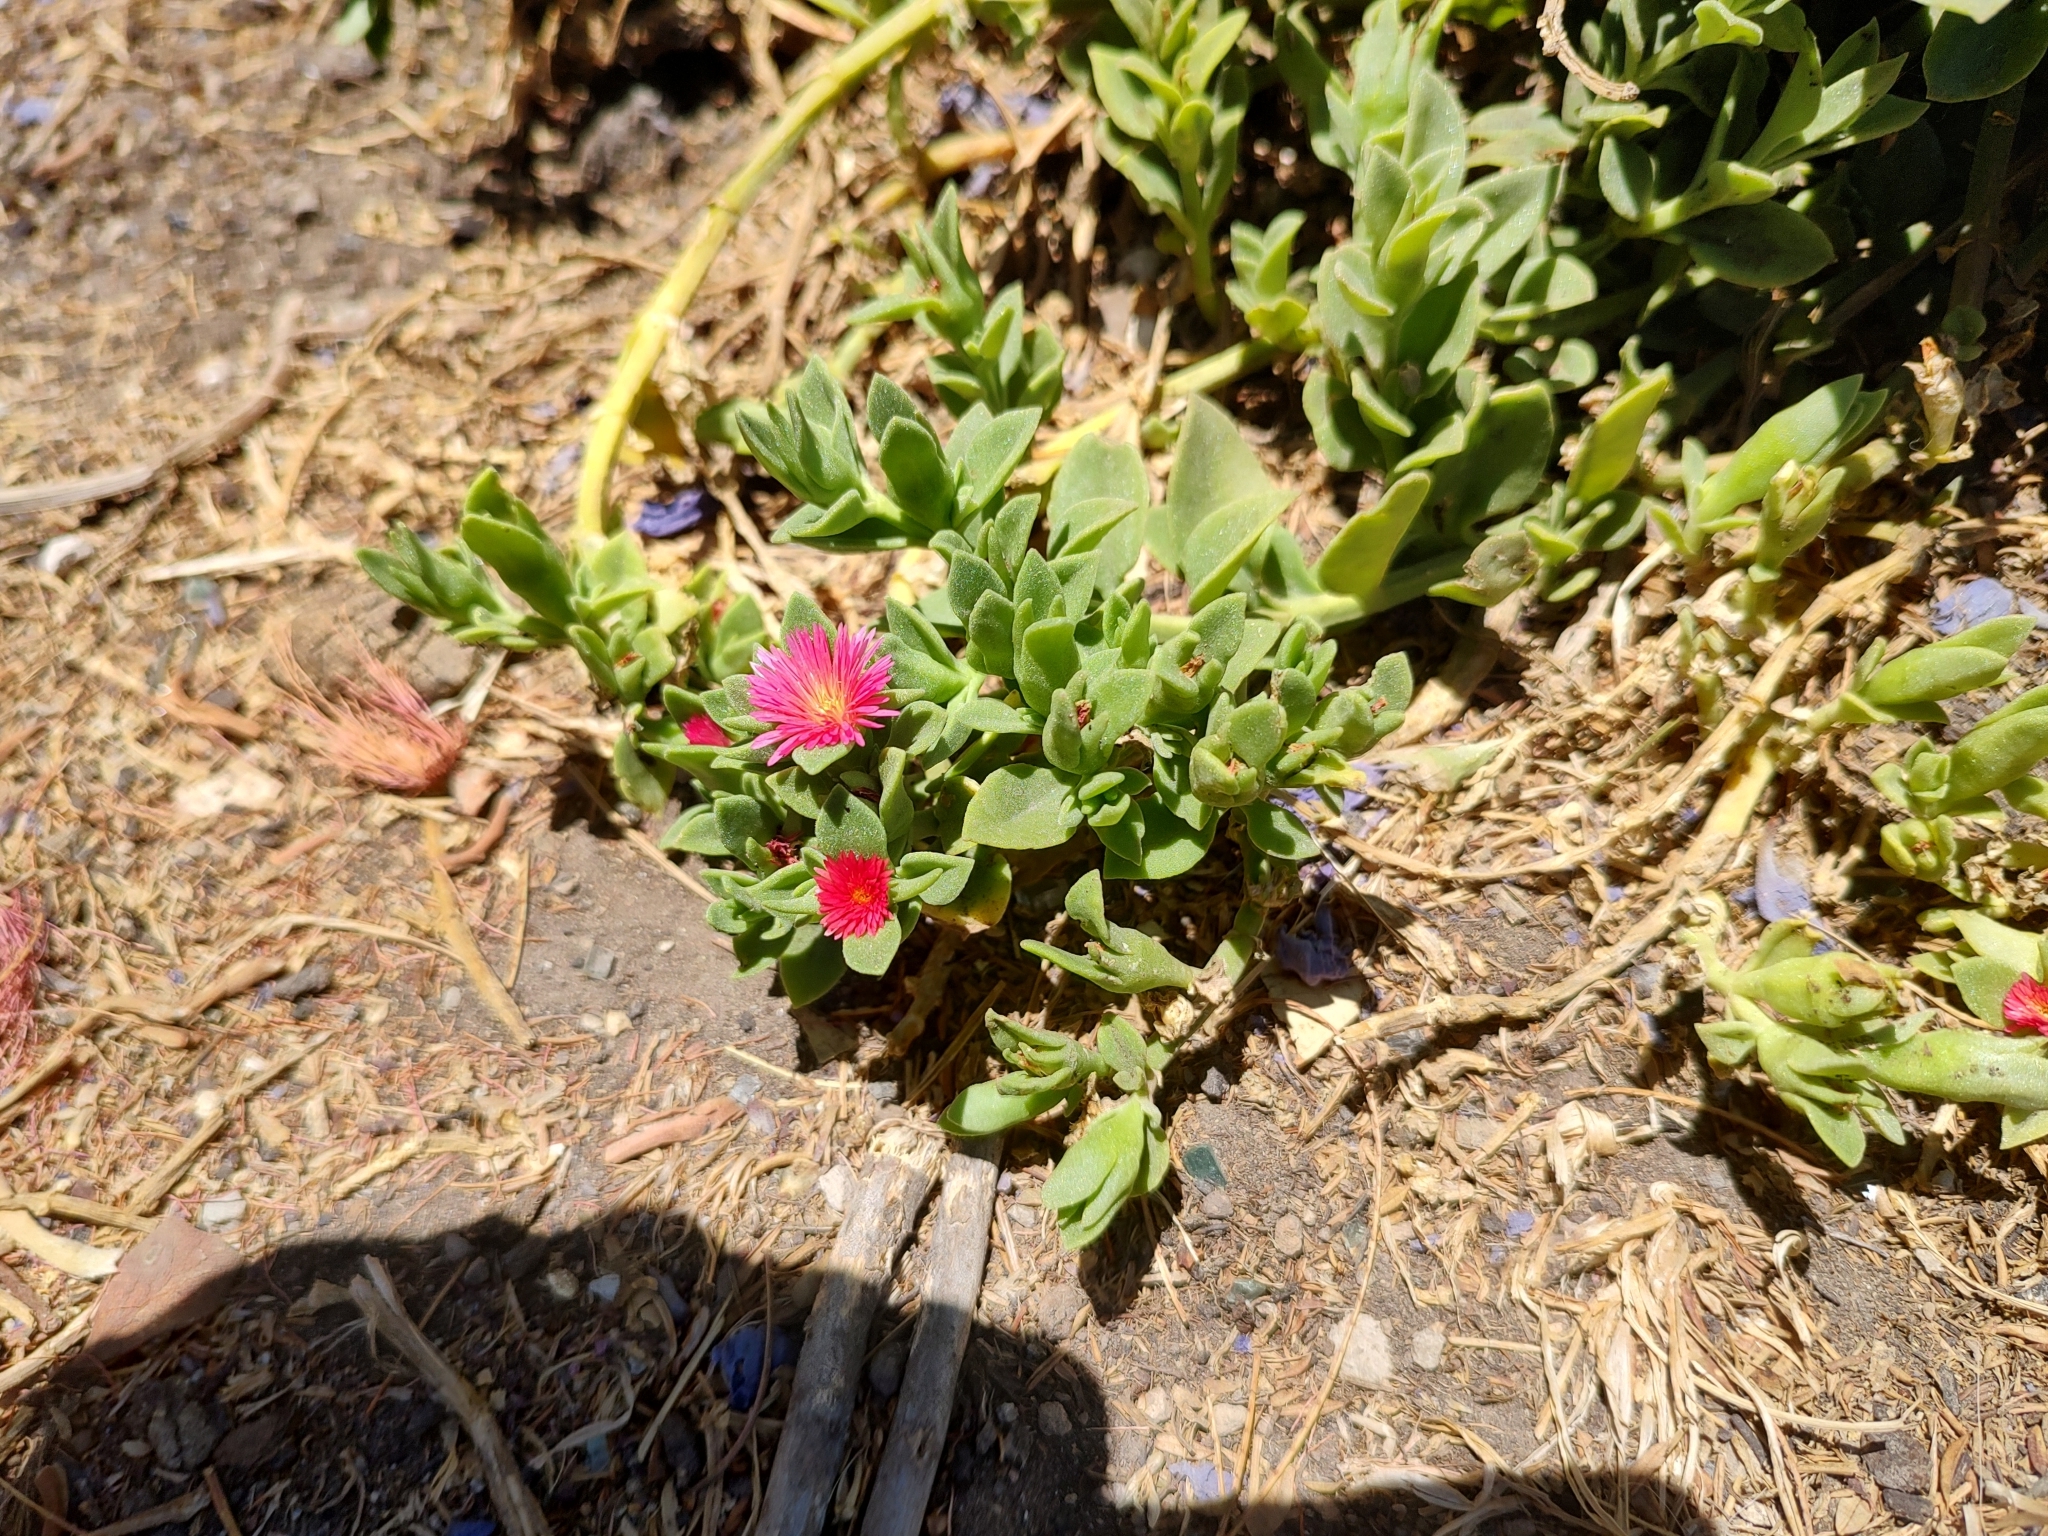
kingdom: Plantae
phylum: Tracheophyta
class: Magnoliopsida
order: Caryophyllales
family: Aizoaceae
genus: Mesembryanthemum
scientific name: Mesembryanthemum cordifolium
